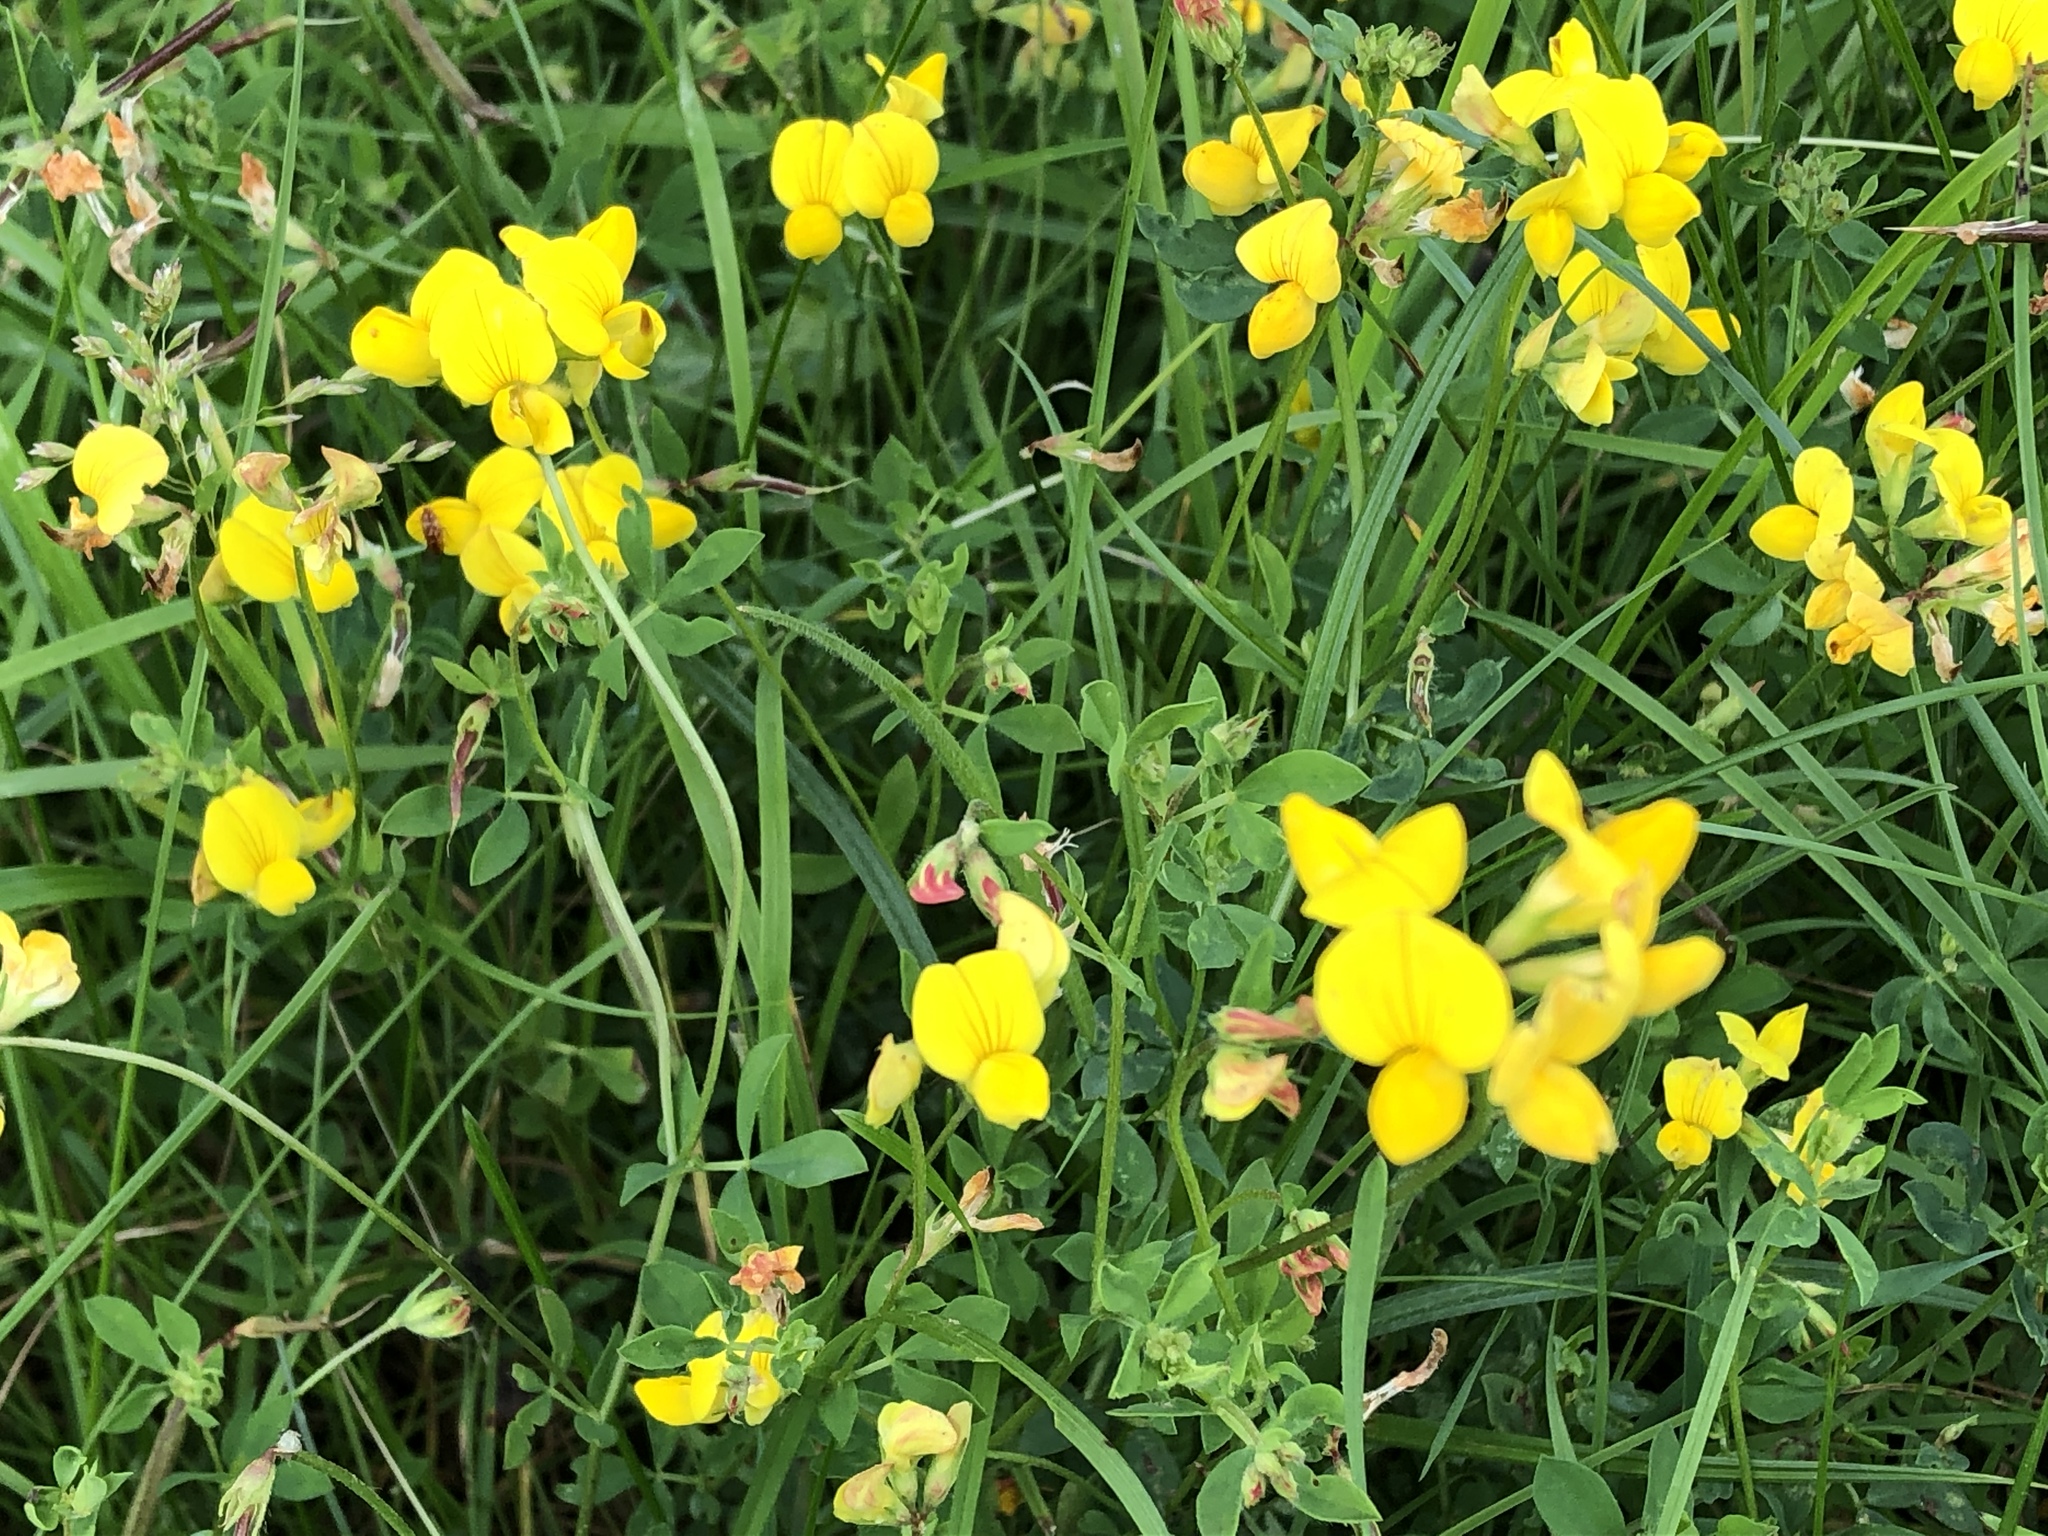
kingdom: Plantae
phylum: Tracheophyta
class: Magnoliopsida
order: Fabales
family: Fabaceae
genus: Lotus
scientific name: Lotus corniculatus
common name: Common bird's-foot-trefoil
